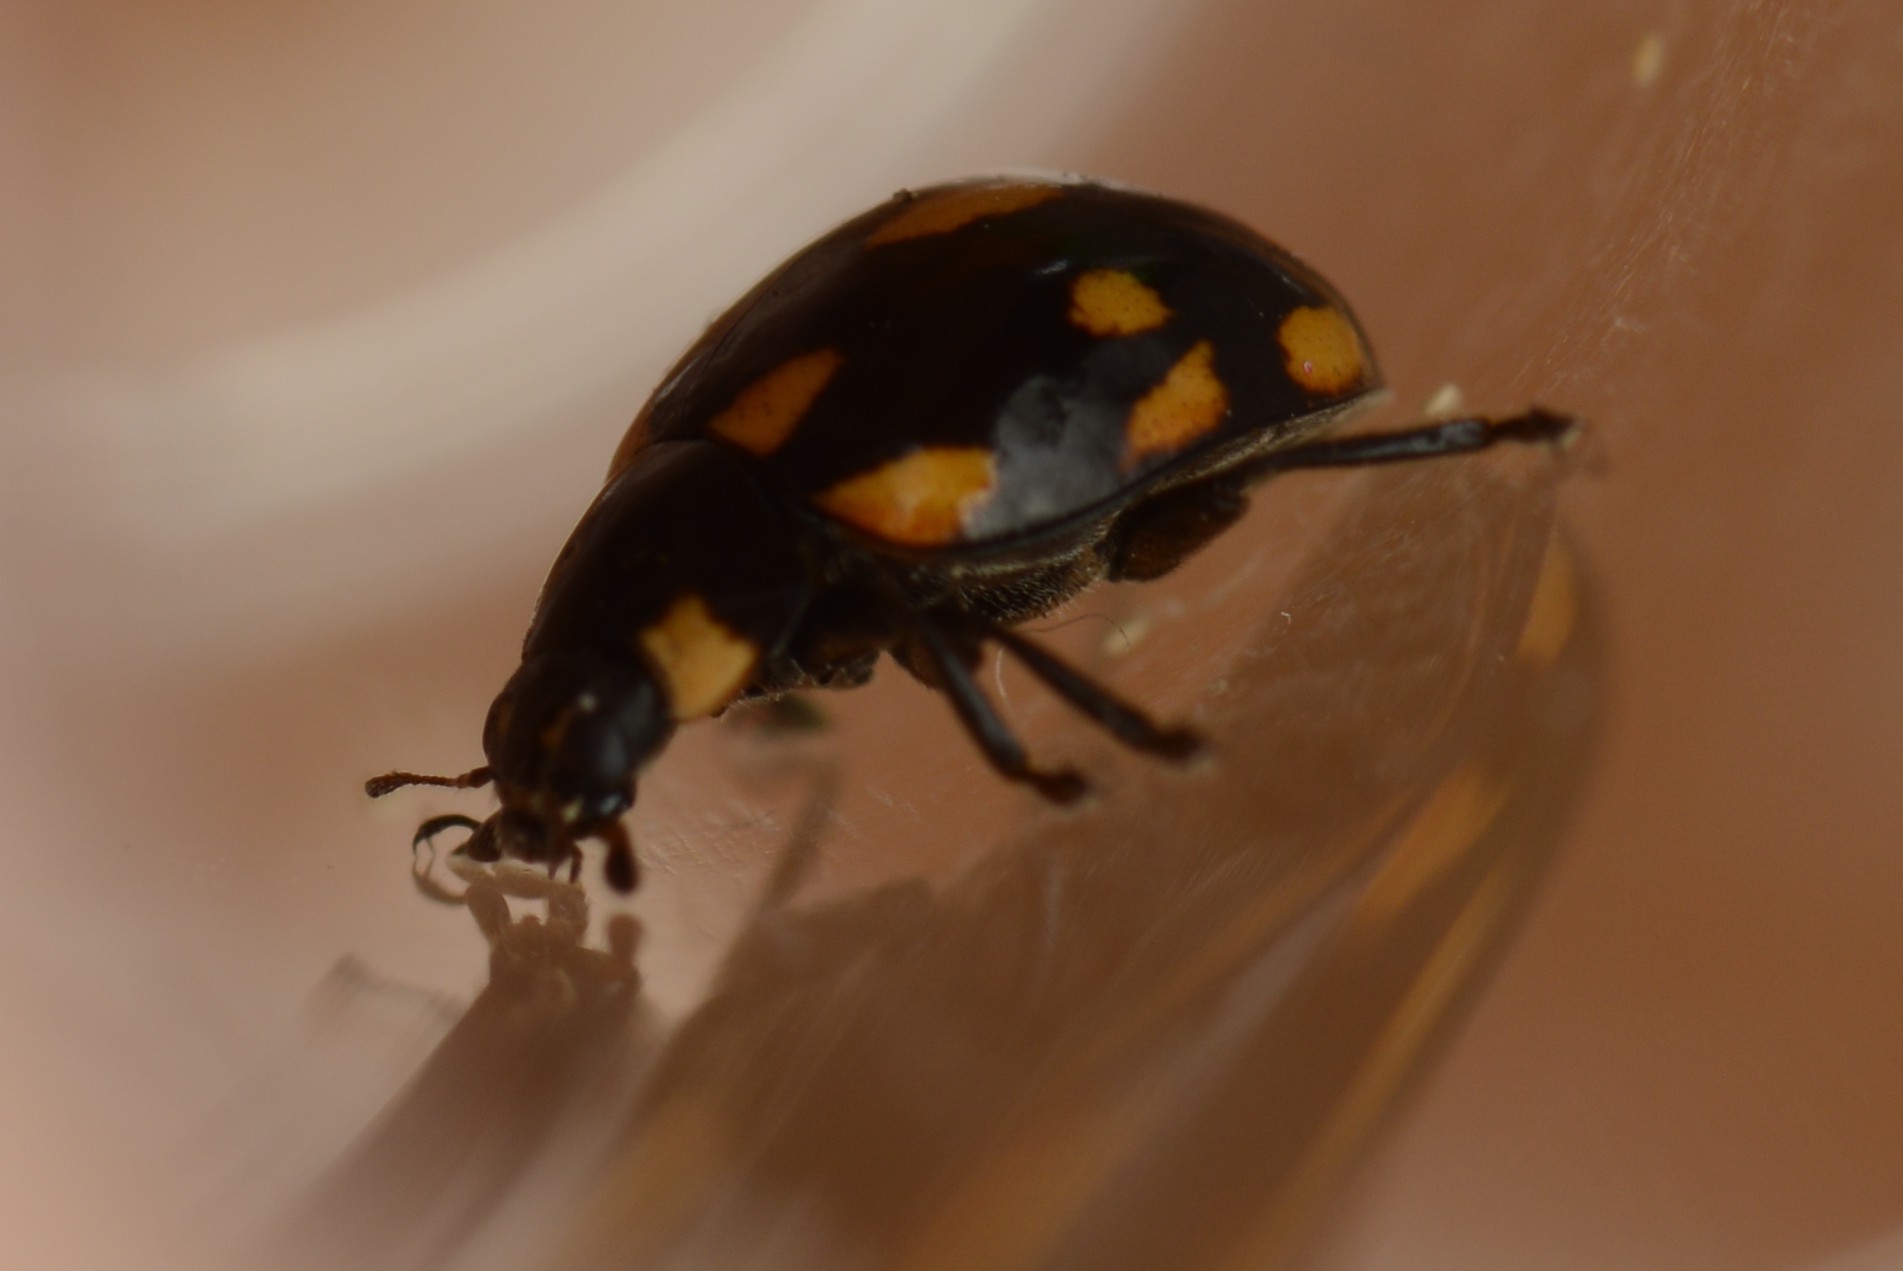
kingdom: Animalia
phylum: Arthropoda
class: Insecta
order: Coleoptera
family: Coccinellidae
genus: Coccinella
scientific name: Coccinella leonina
